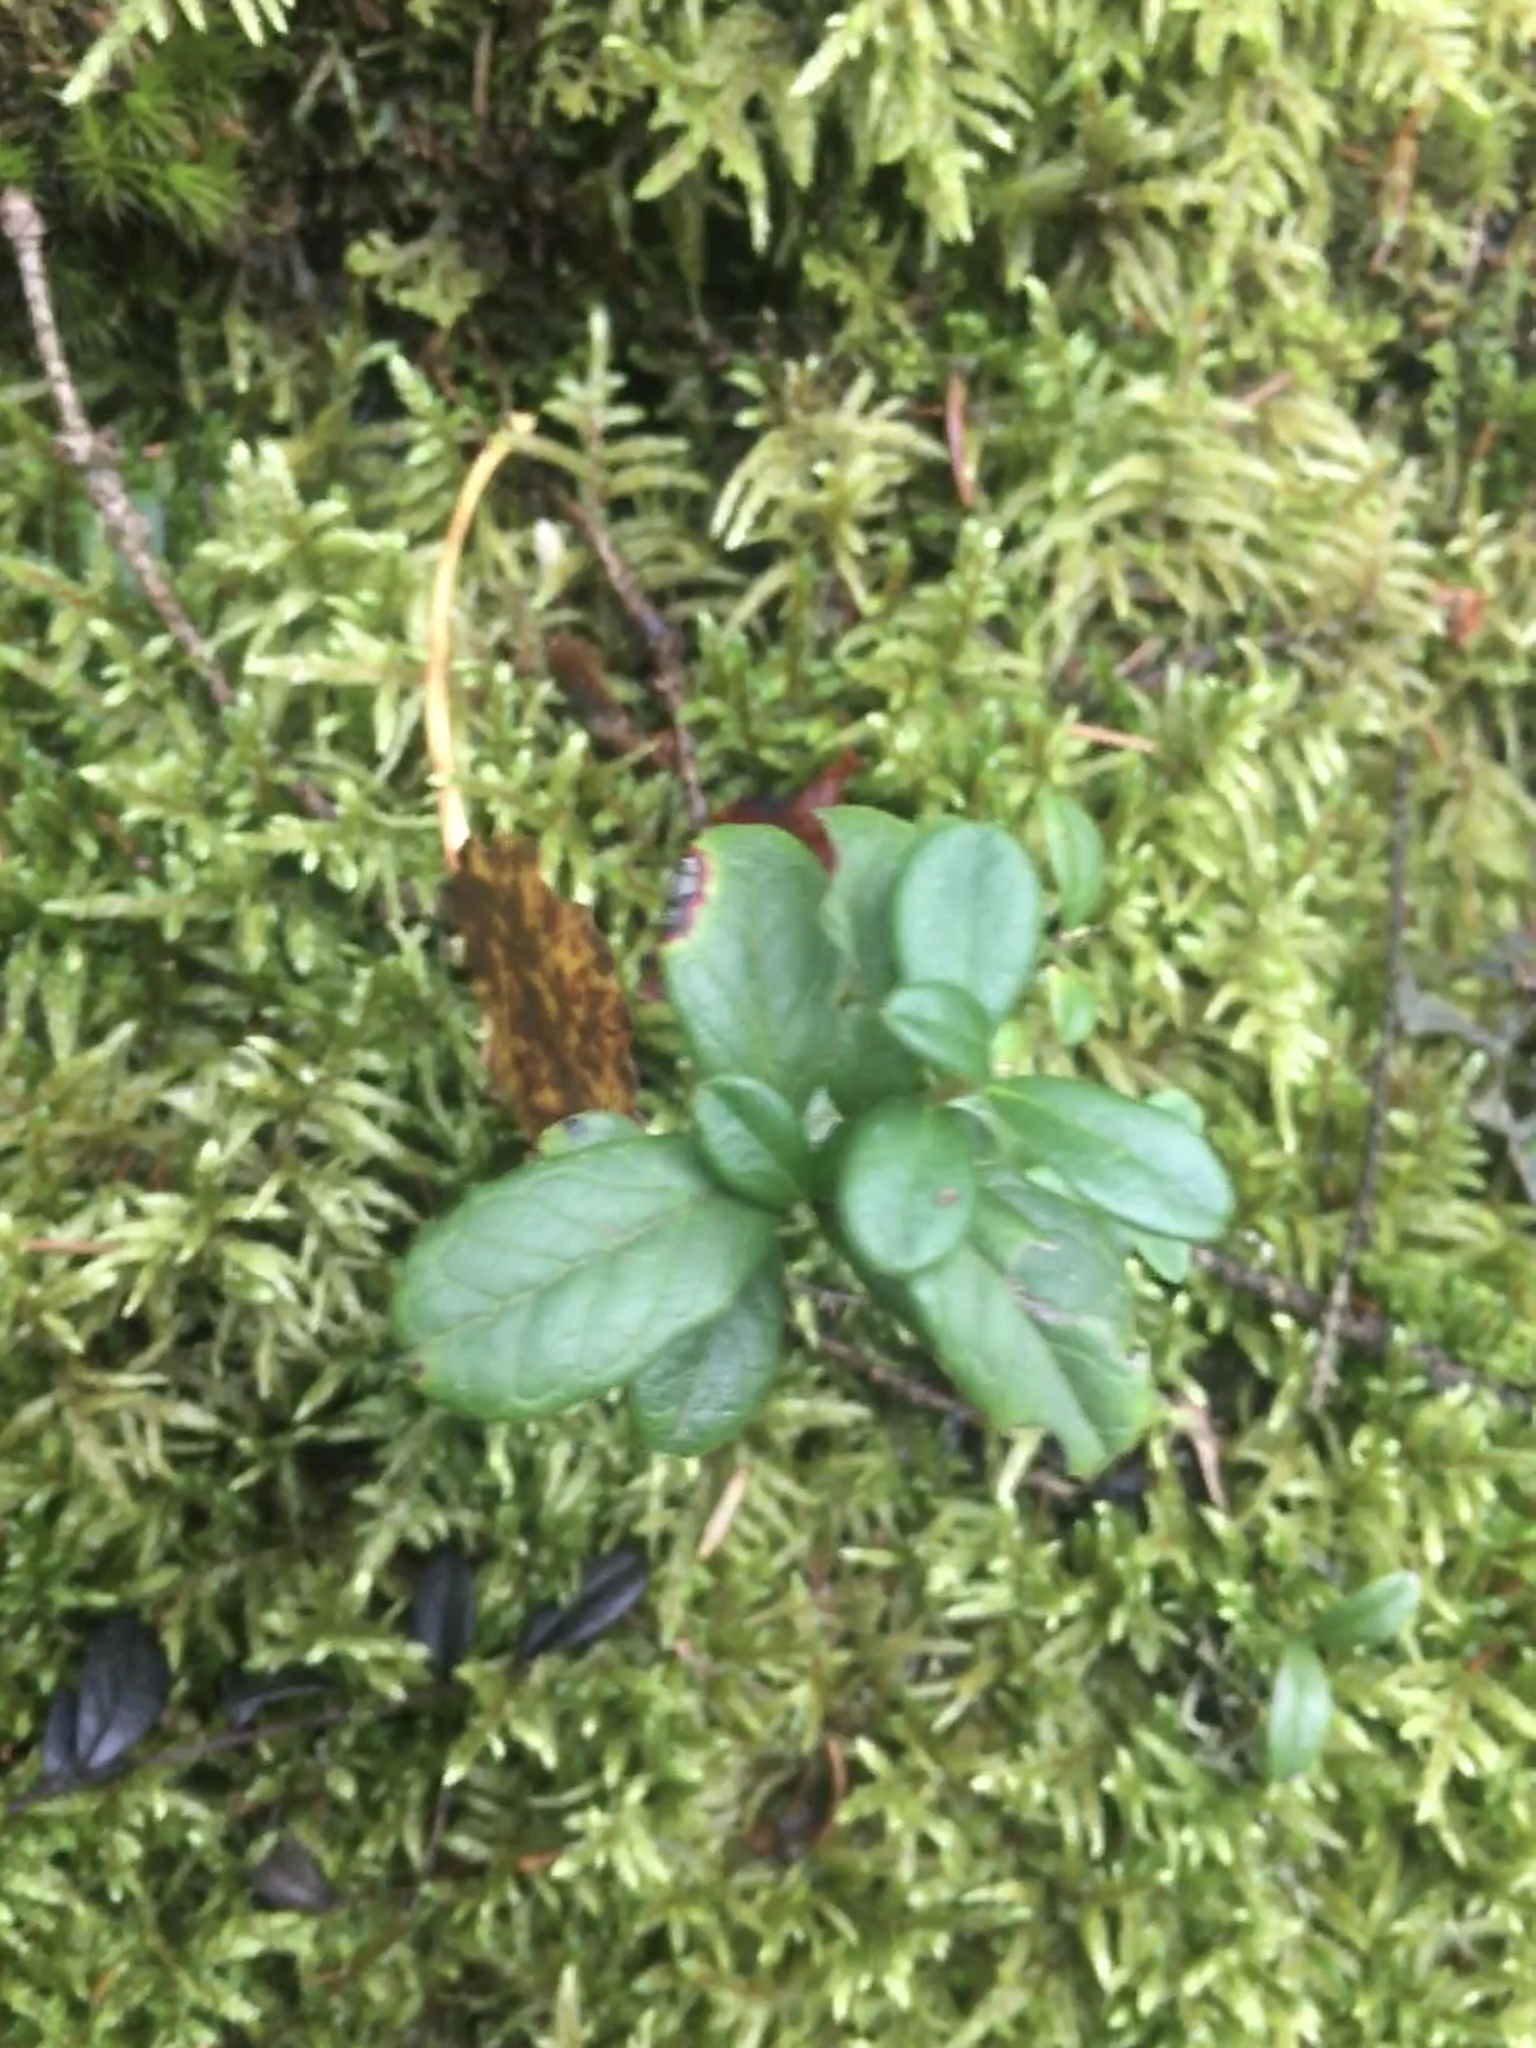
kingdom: Plantae
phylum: Tracheophyta
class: Magnoliopsida
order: Ericales
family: Ericaceae
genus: Vaccinium
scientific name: Vaccinium vitis-idaea
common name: Cowberry
